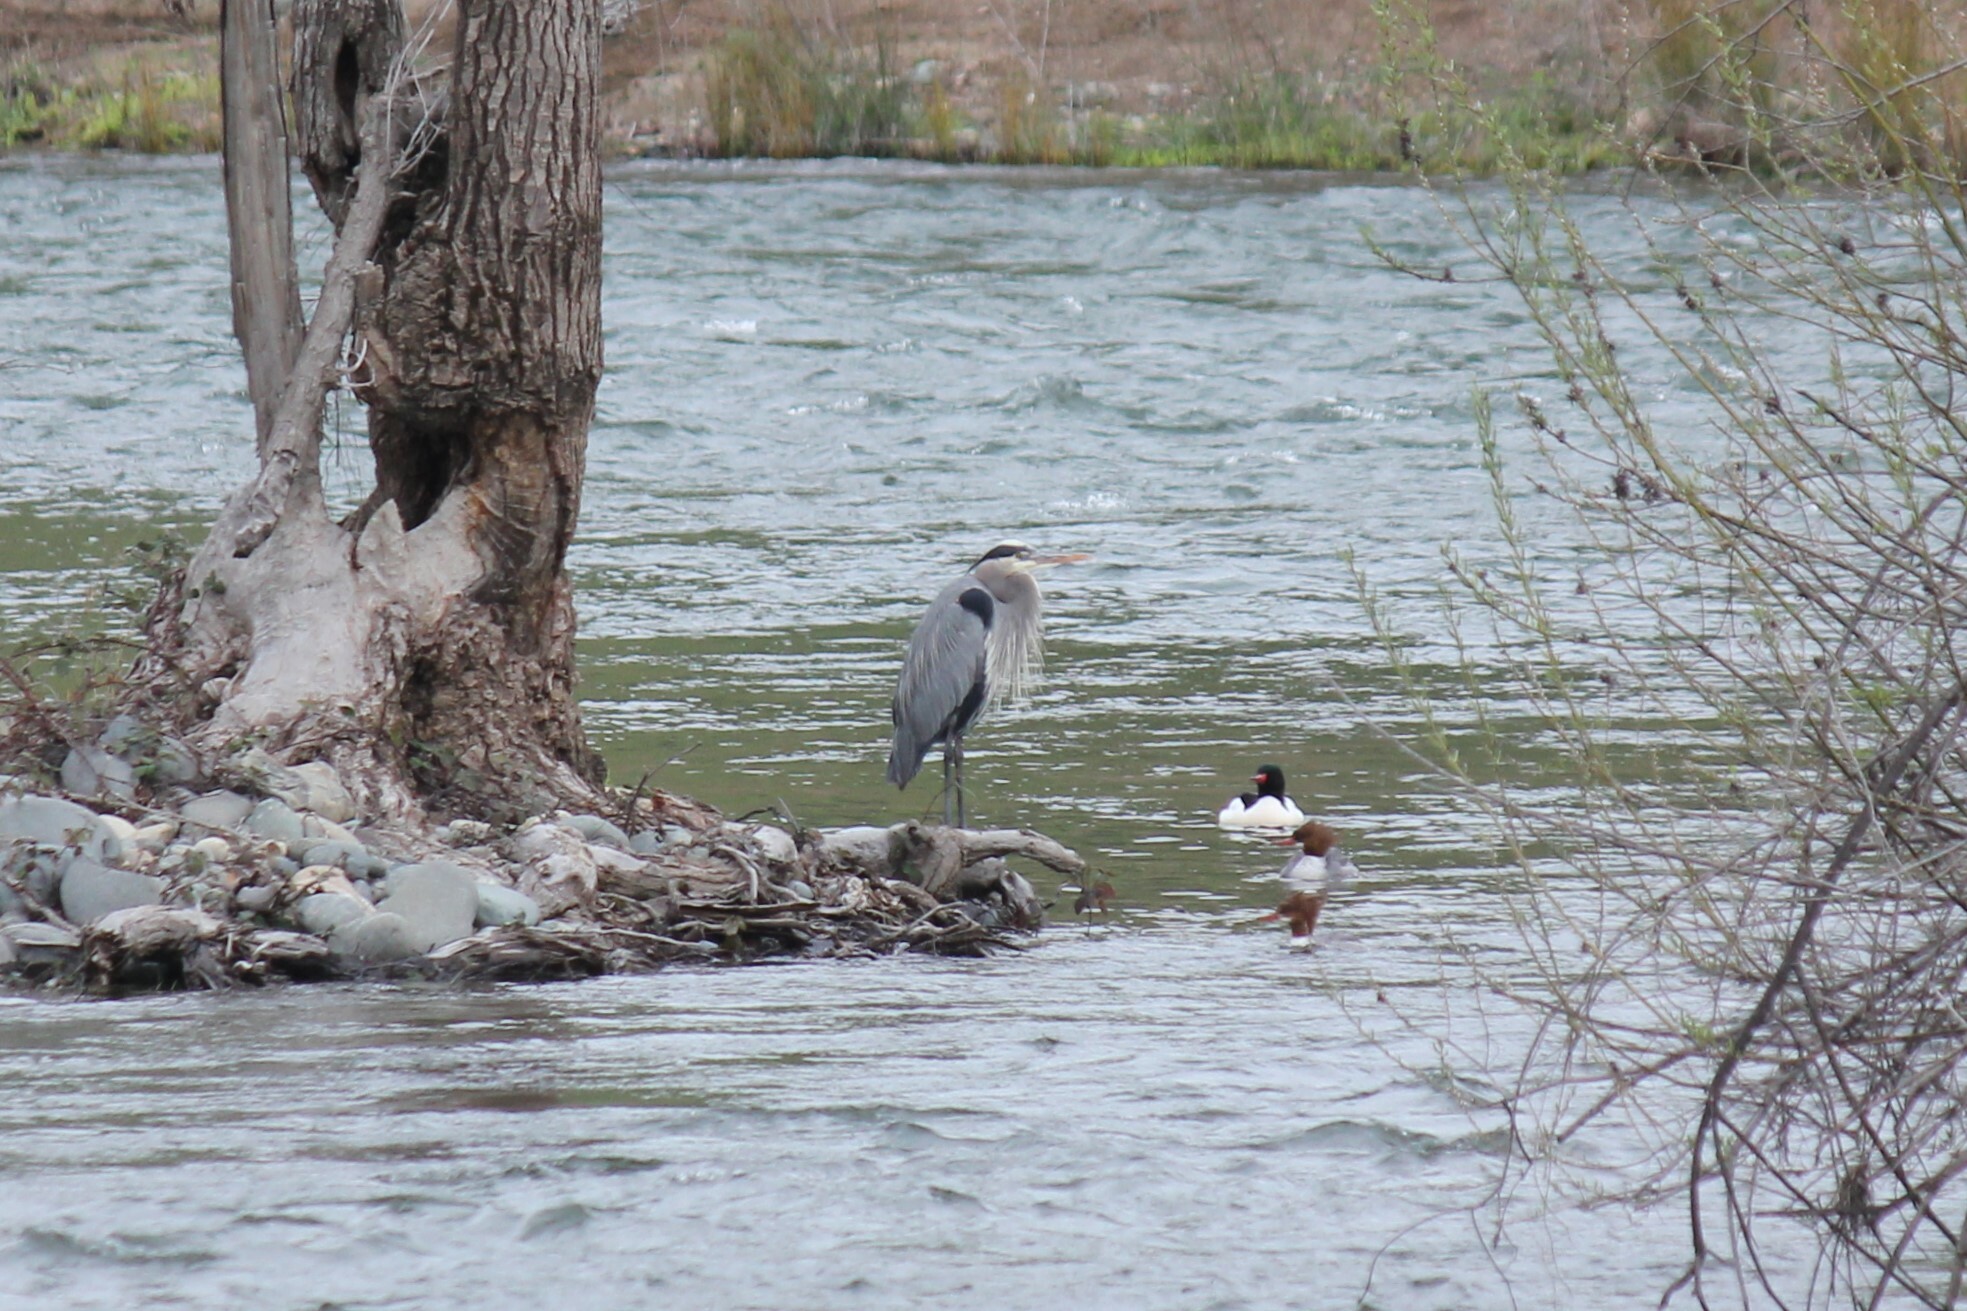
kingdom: Animalia
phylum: Chordata
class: Aves
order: Pelecaniformes
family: Ardeidae
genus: Ardea
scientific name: Ardea herodias
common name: Great blue heron
